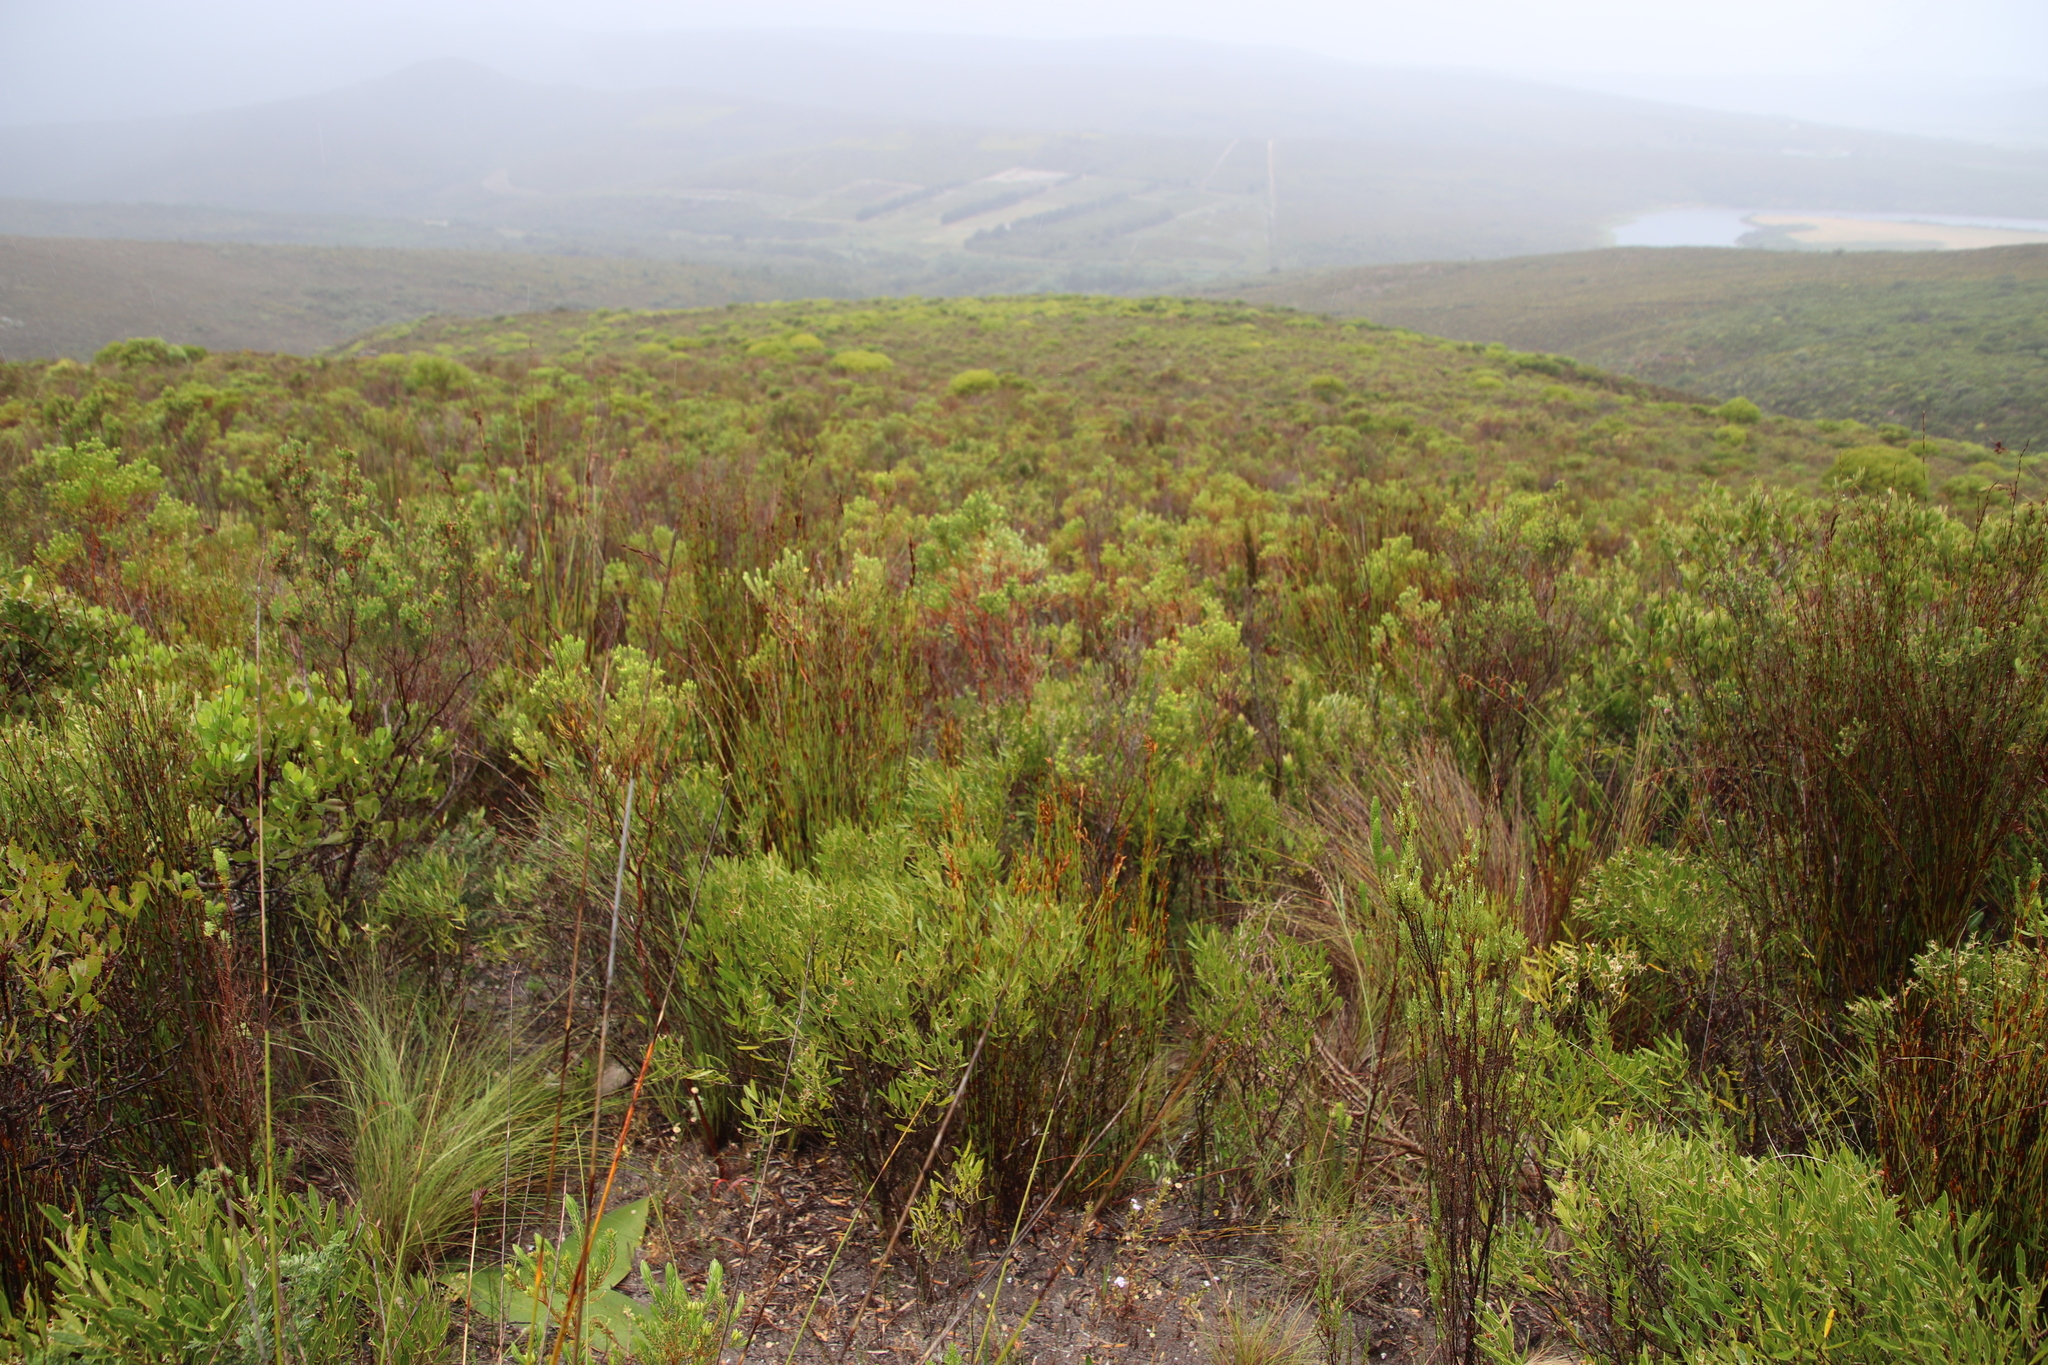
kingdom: Plantae
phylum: Tracheophyta
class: Magnoliopsida
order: Lamiales
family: Oleaceae
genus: Olea
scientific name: Olea exasperata
